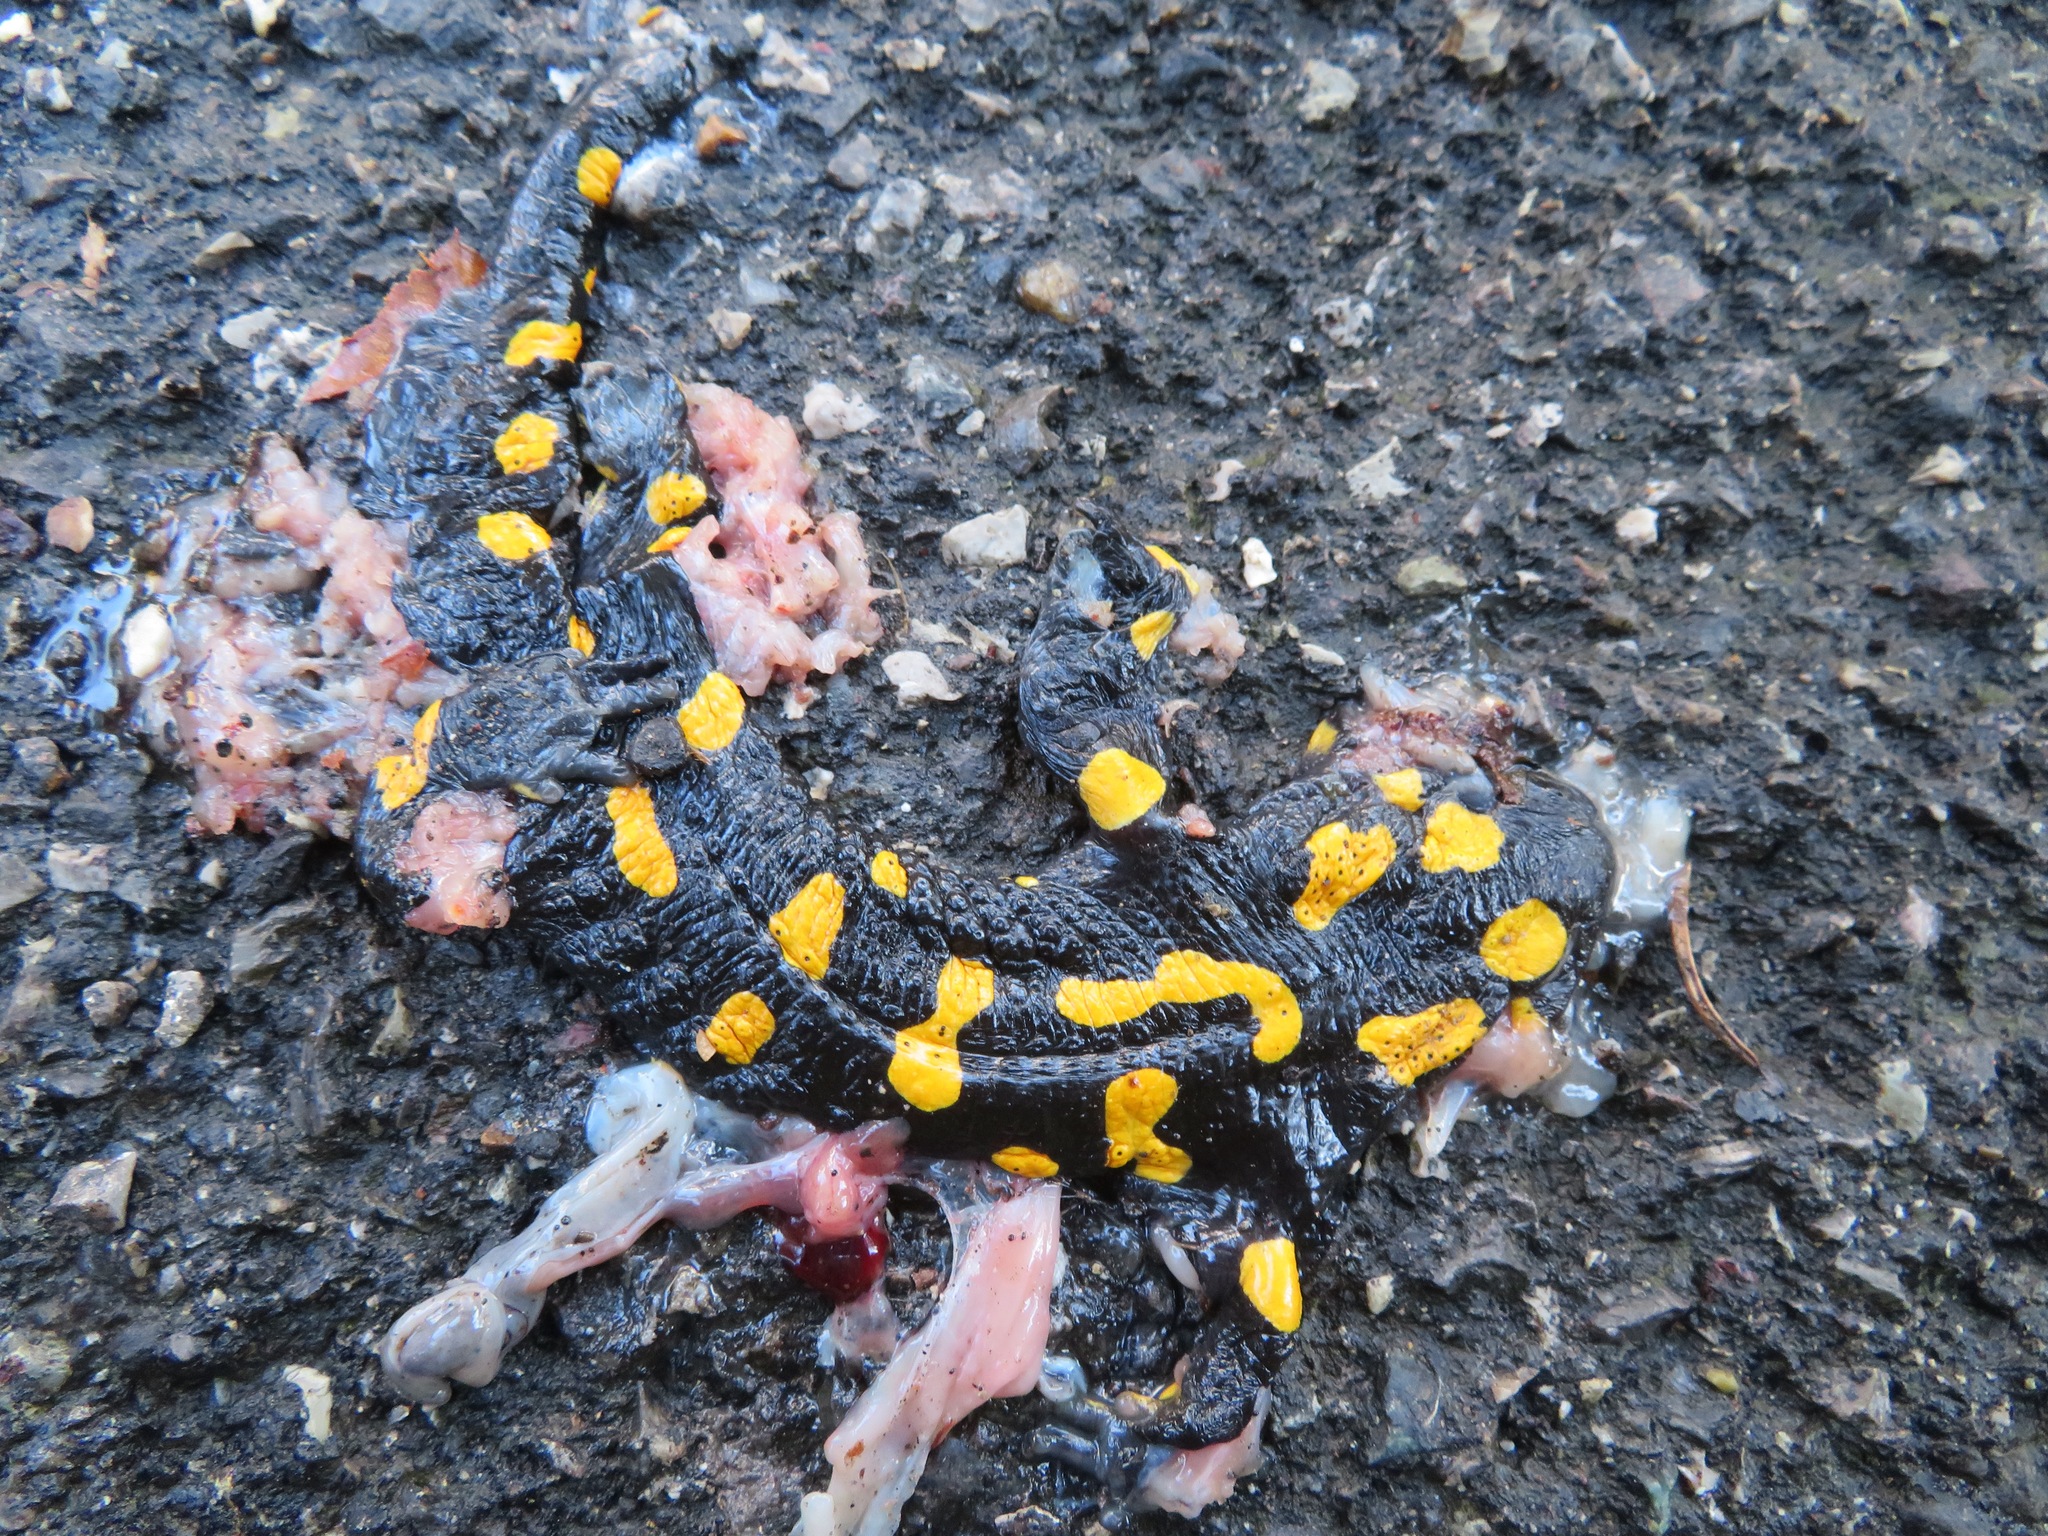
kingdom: Animalia
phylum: Chordata
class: Amphibia
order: Caudata
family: Salamandridae
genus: Salamandra
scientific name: Salamandra salamandra
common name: Fire salamander
